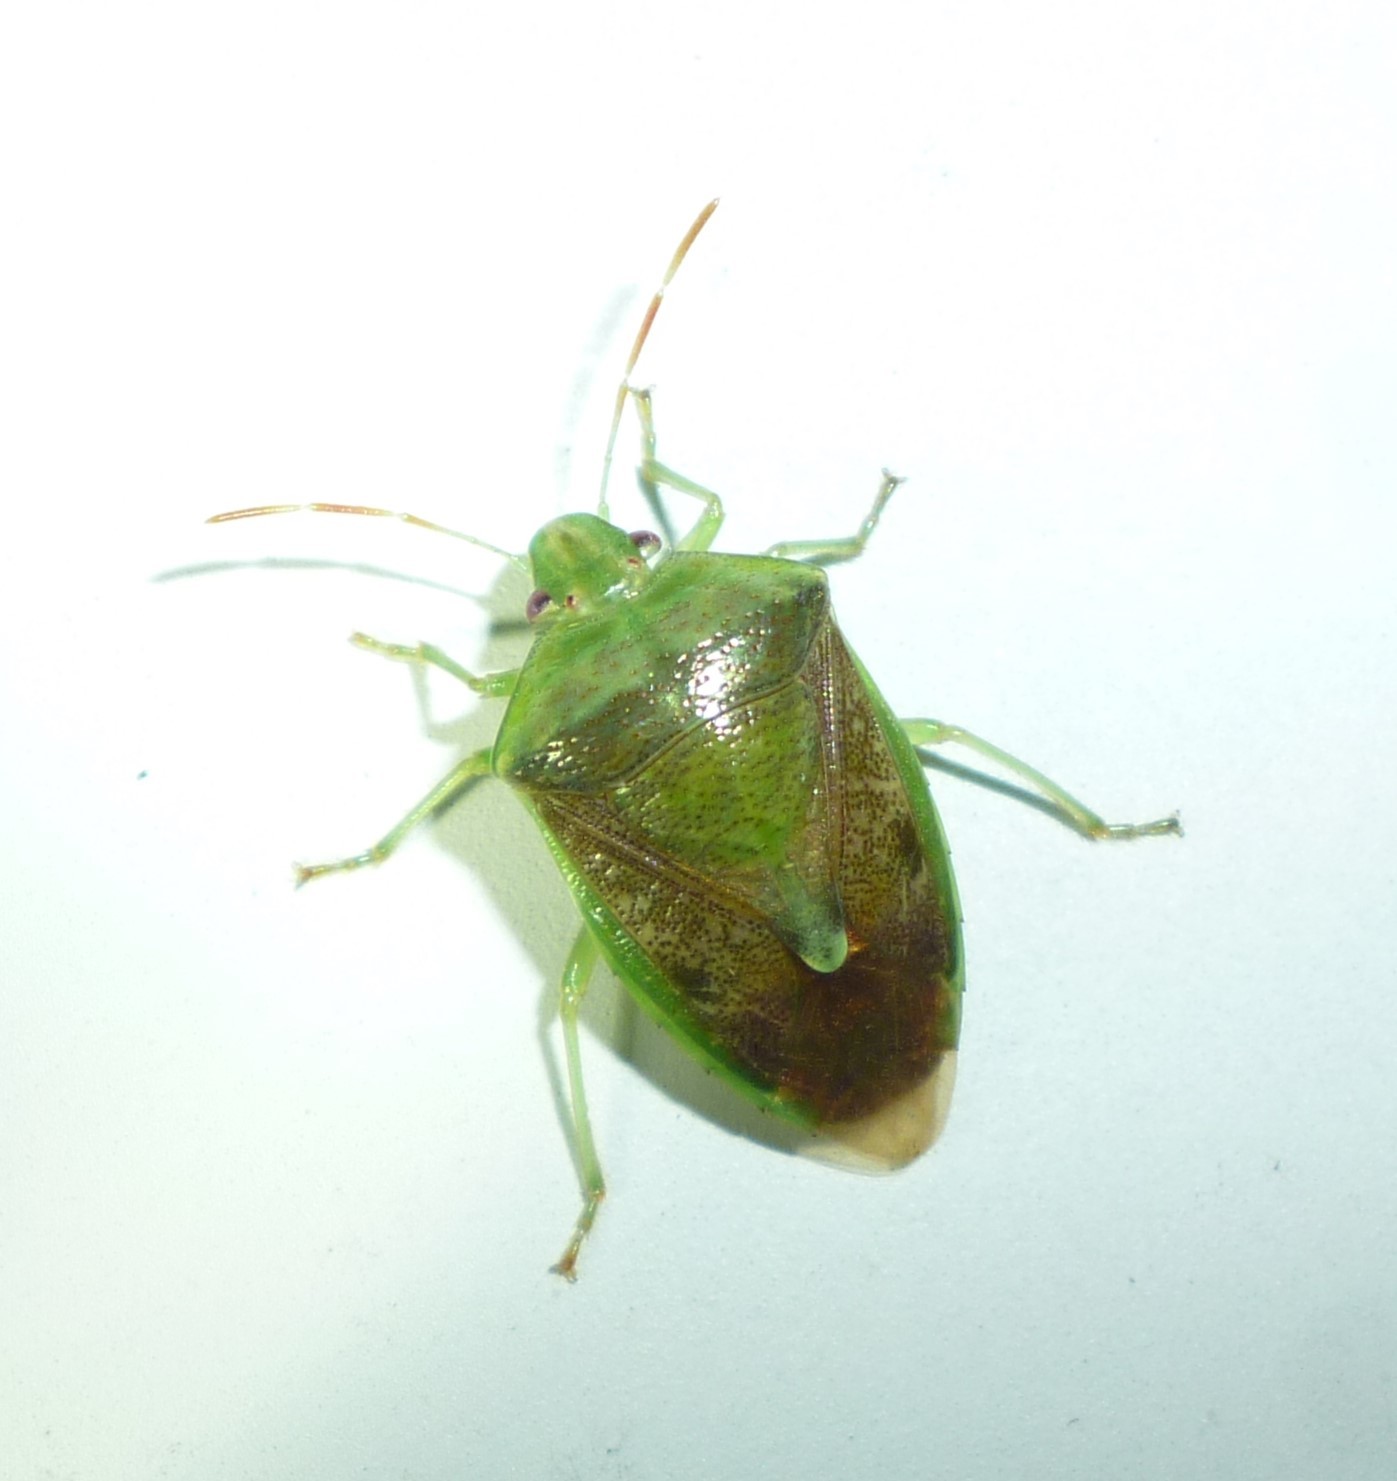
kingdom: Animalia
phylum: Arthropoda
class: Insecta
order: Hemiptera
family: Pentatomidae
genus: Banasa
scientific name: Banasa calva
